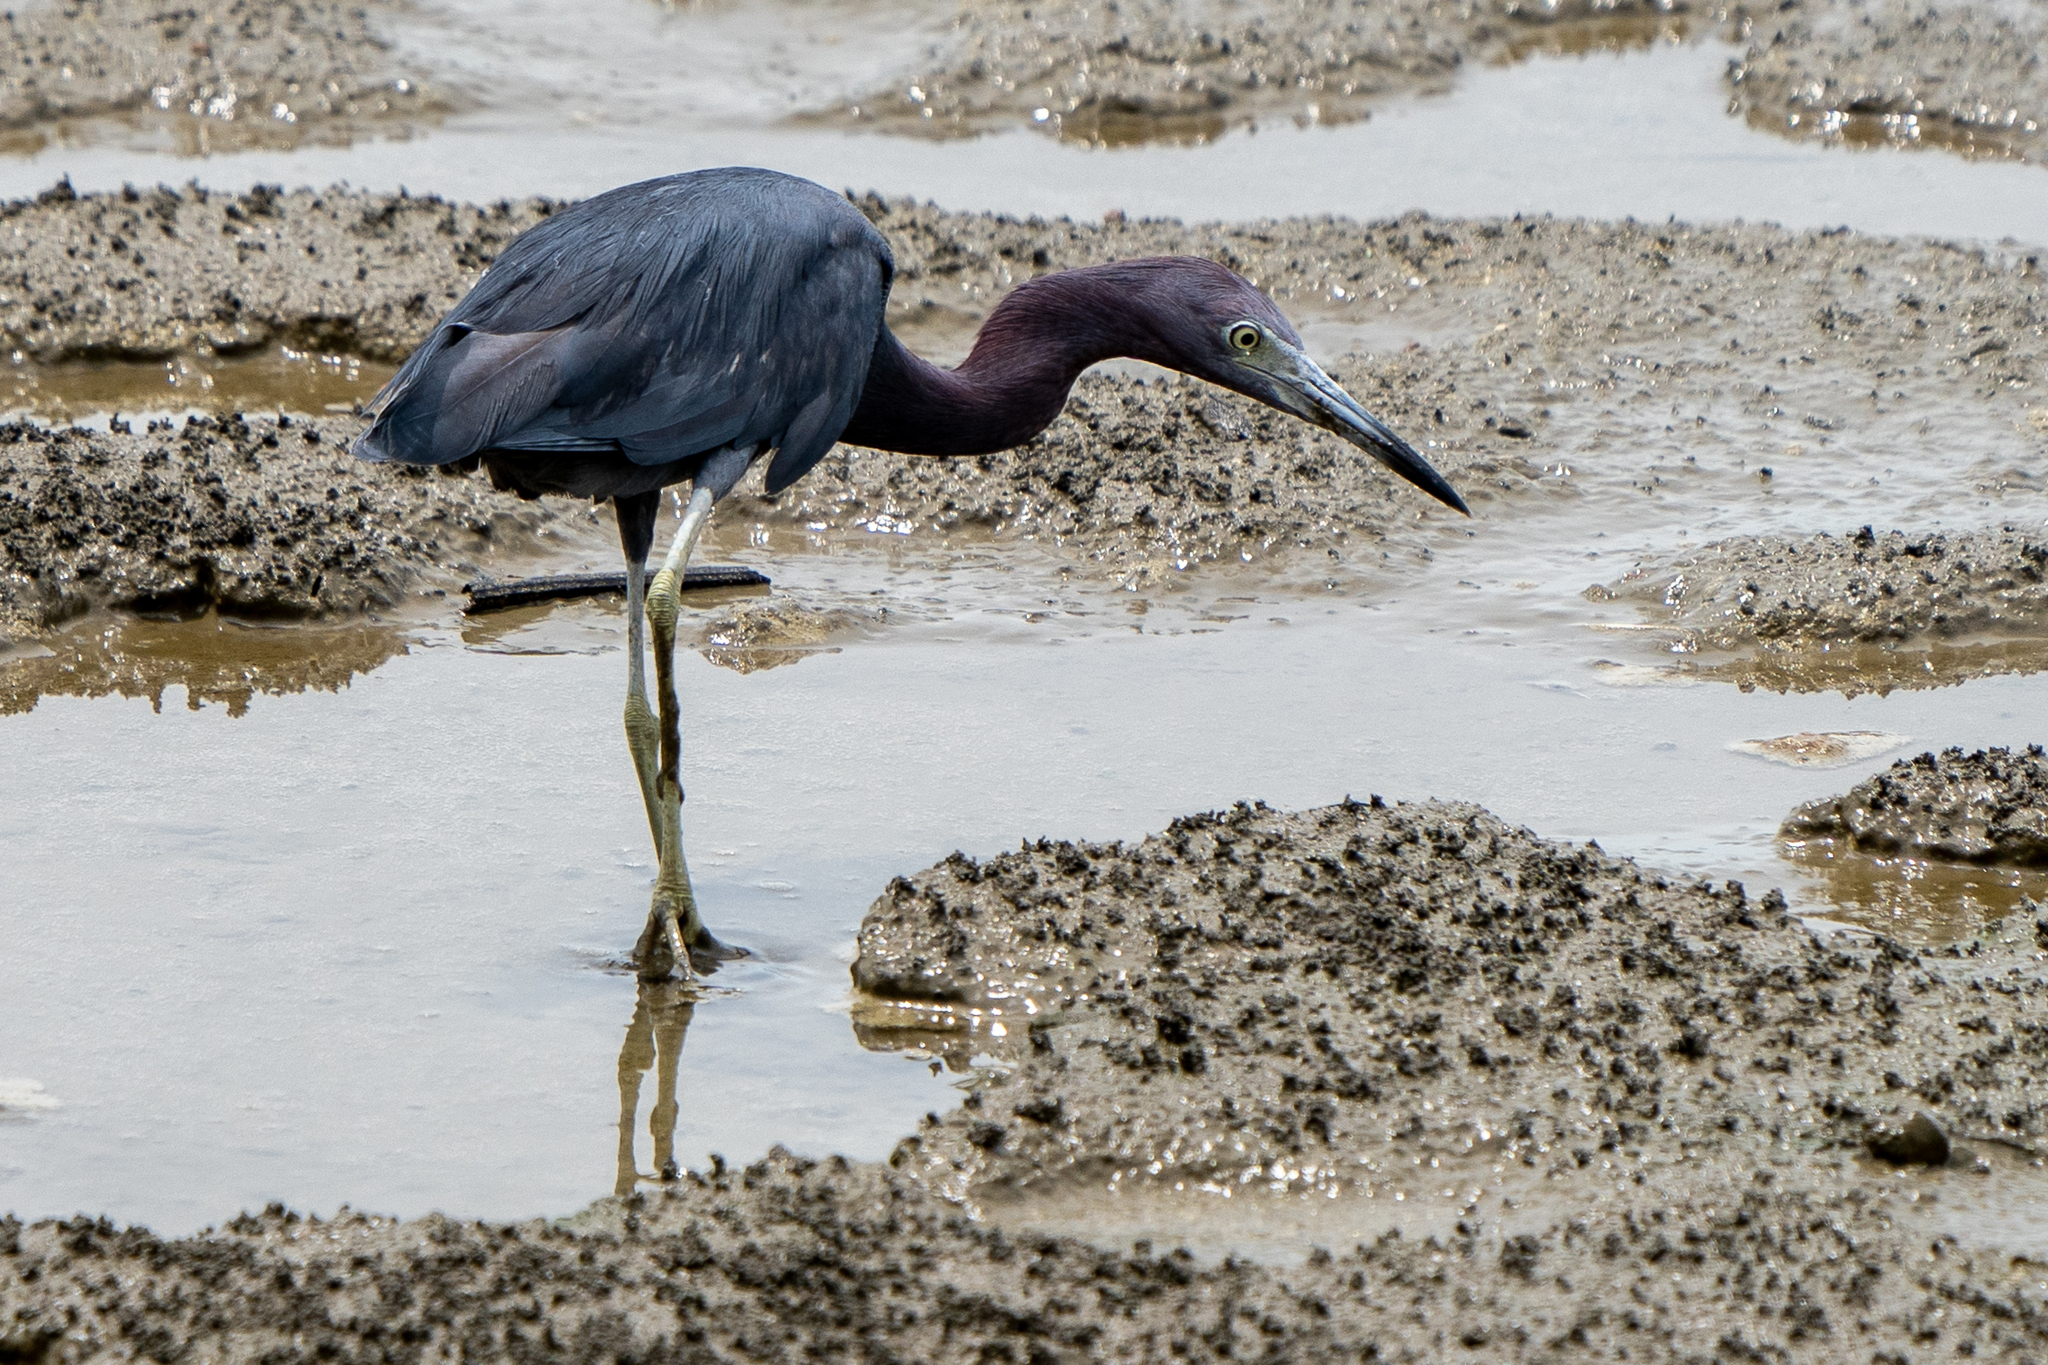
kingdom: Animalia
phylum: Chordata
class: Aves
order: Pelecaniformes
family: Ardeidae
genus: Egretta
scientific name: Egretta caerulea
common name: Little blue heron
